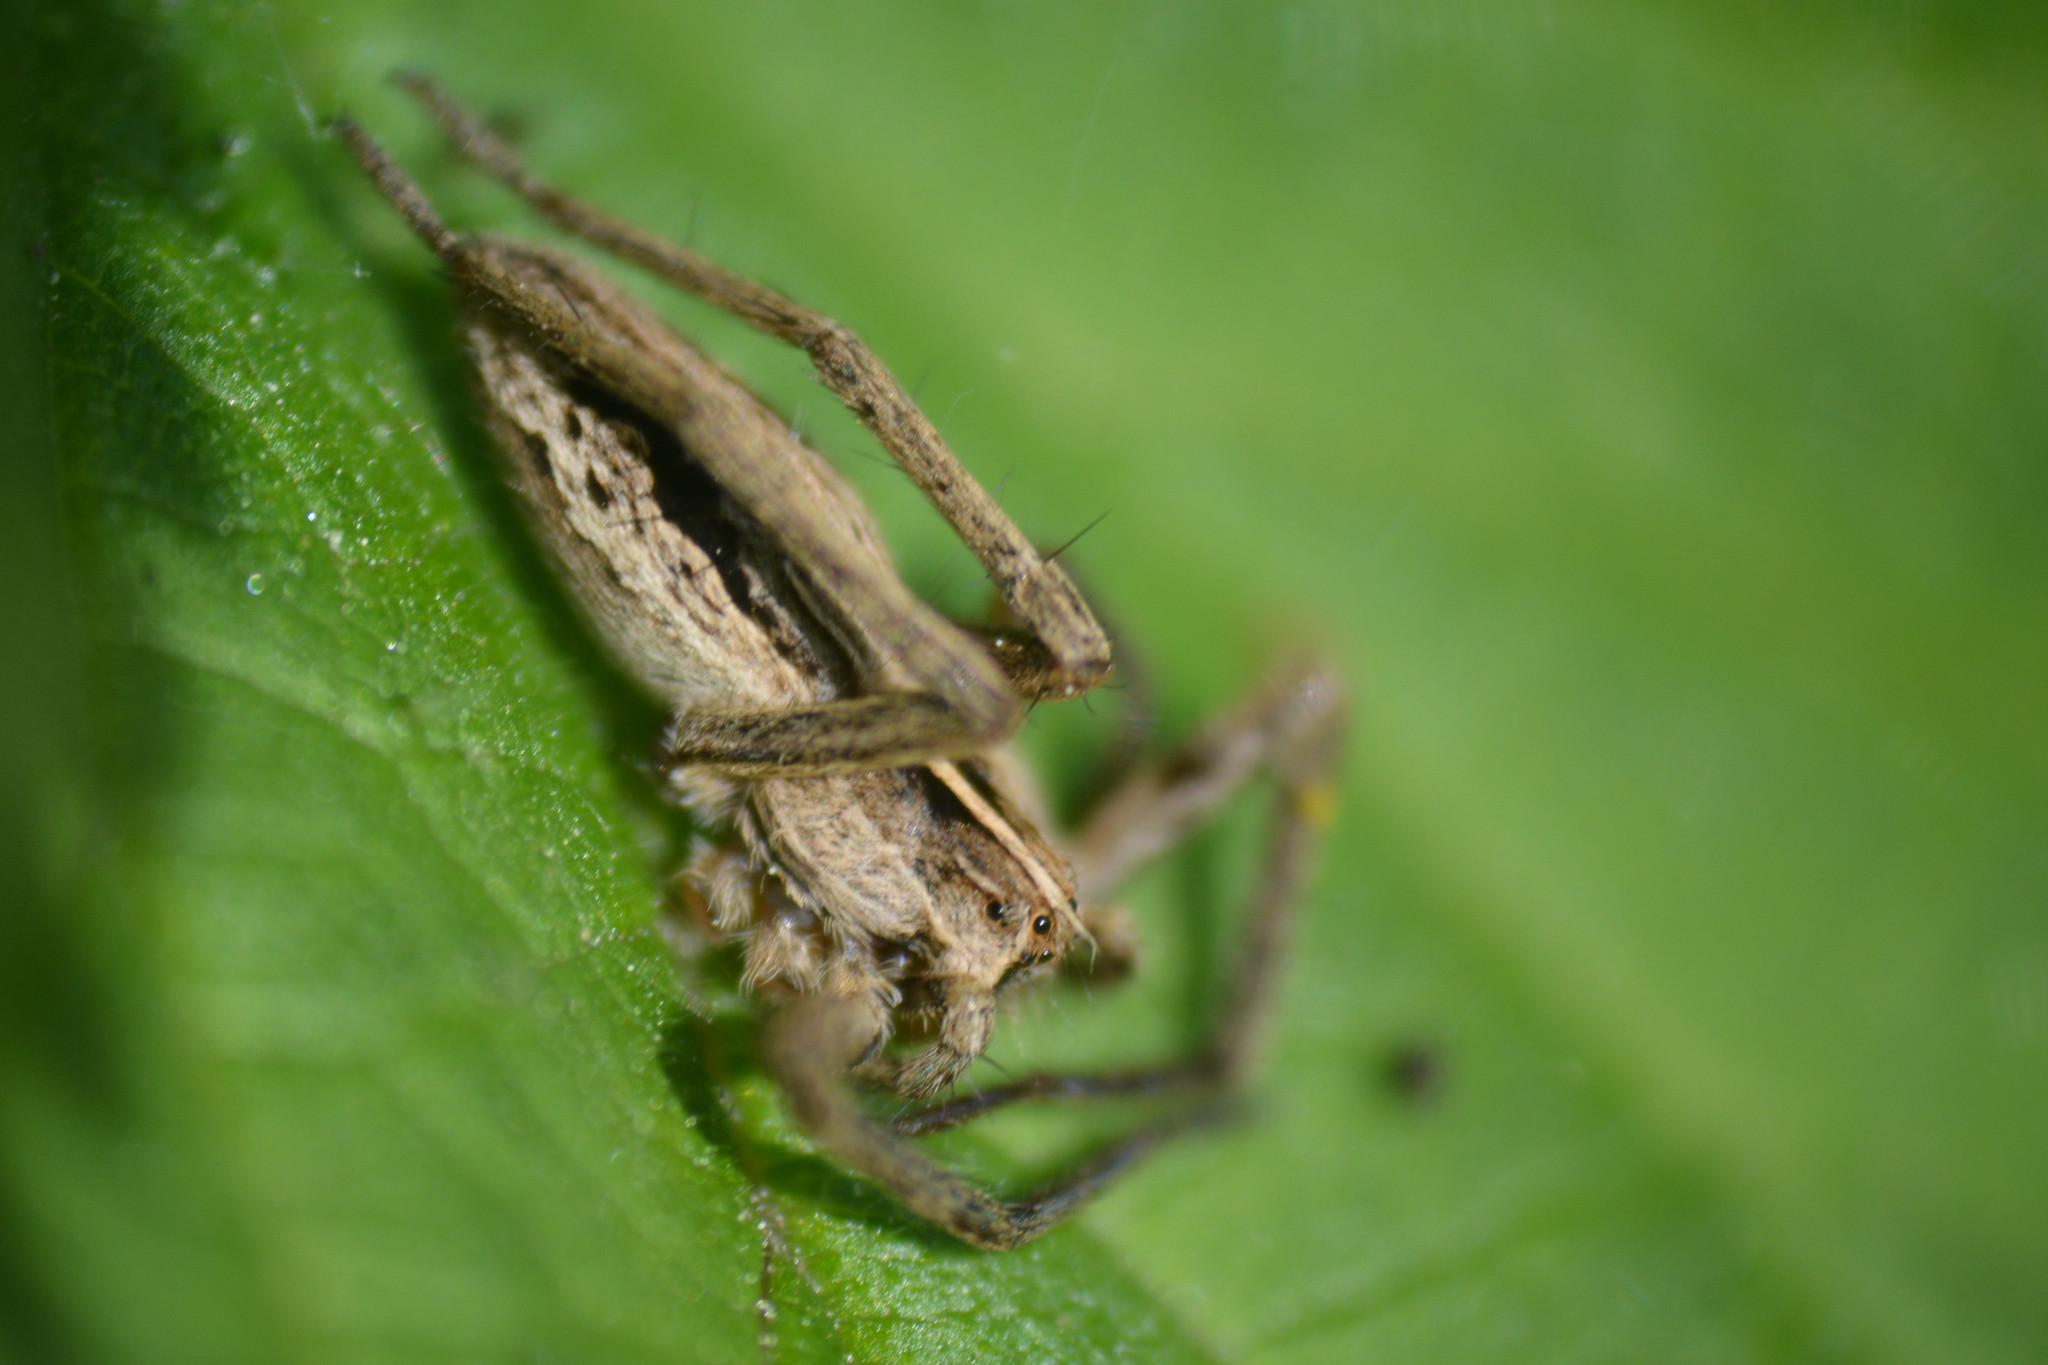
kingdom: Animalia
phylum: Arthropoda
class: Arachnida
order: Araneae
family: Pisauridae
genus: Pisaura
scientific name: Pisaura mirabilis
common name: Tent spider
